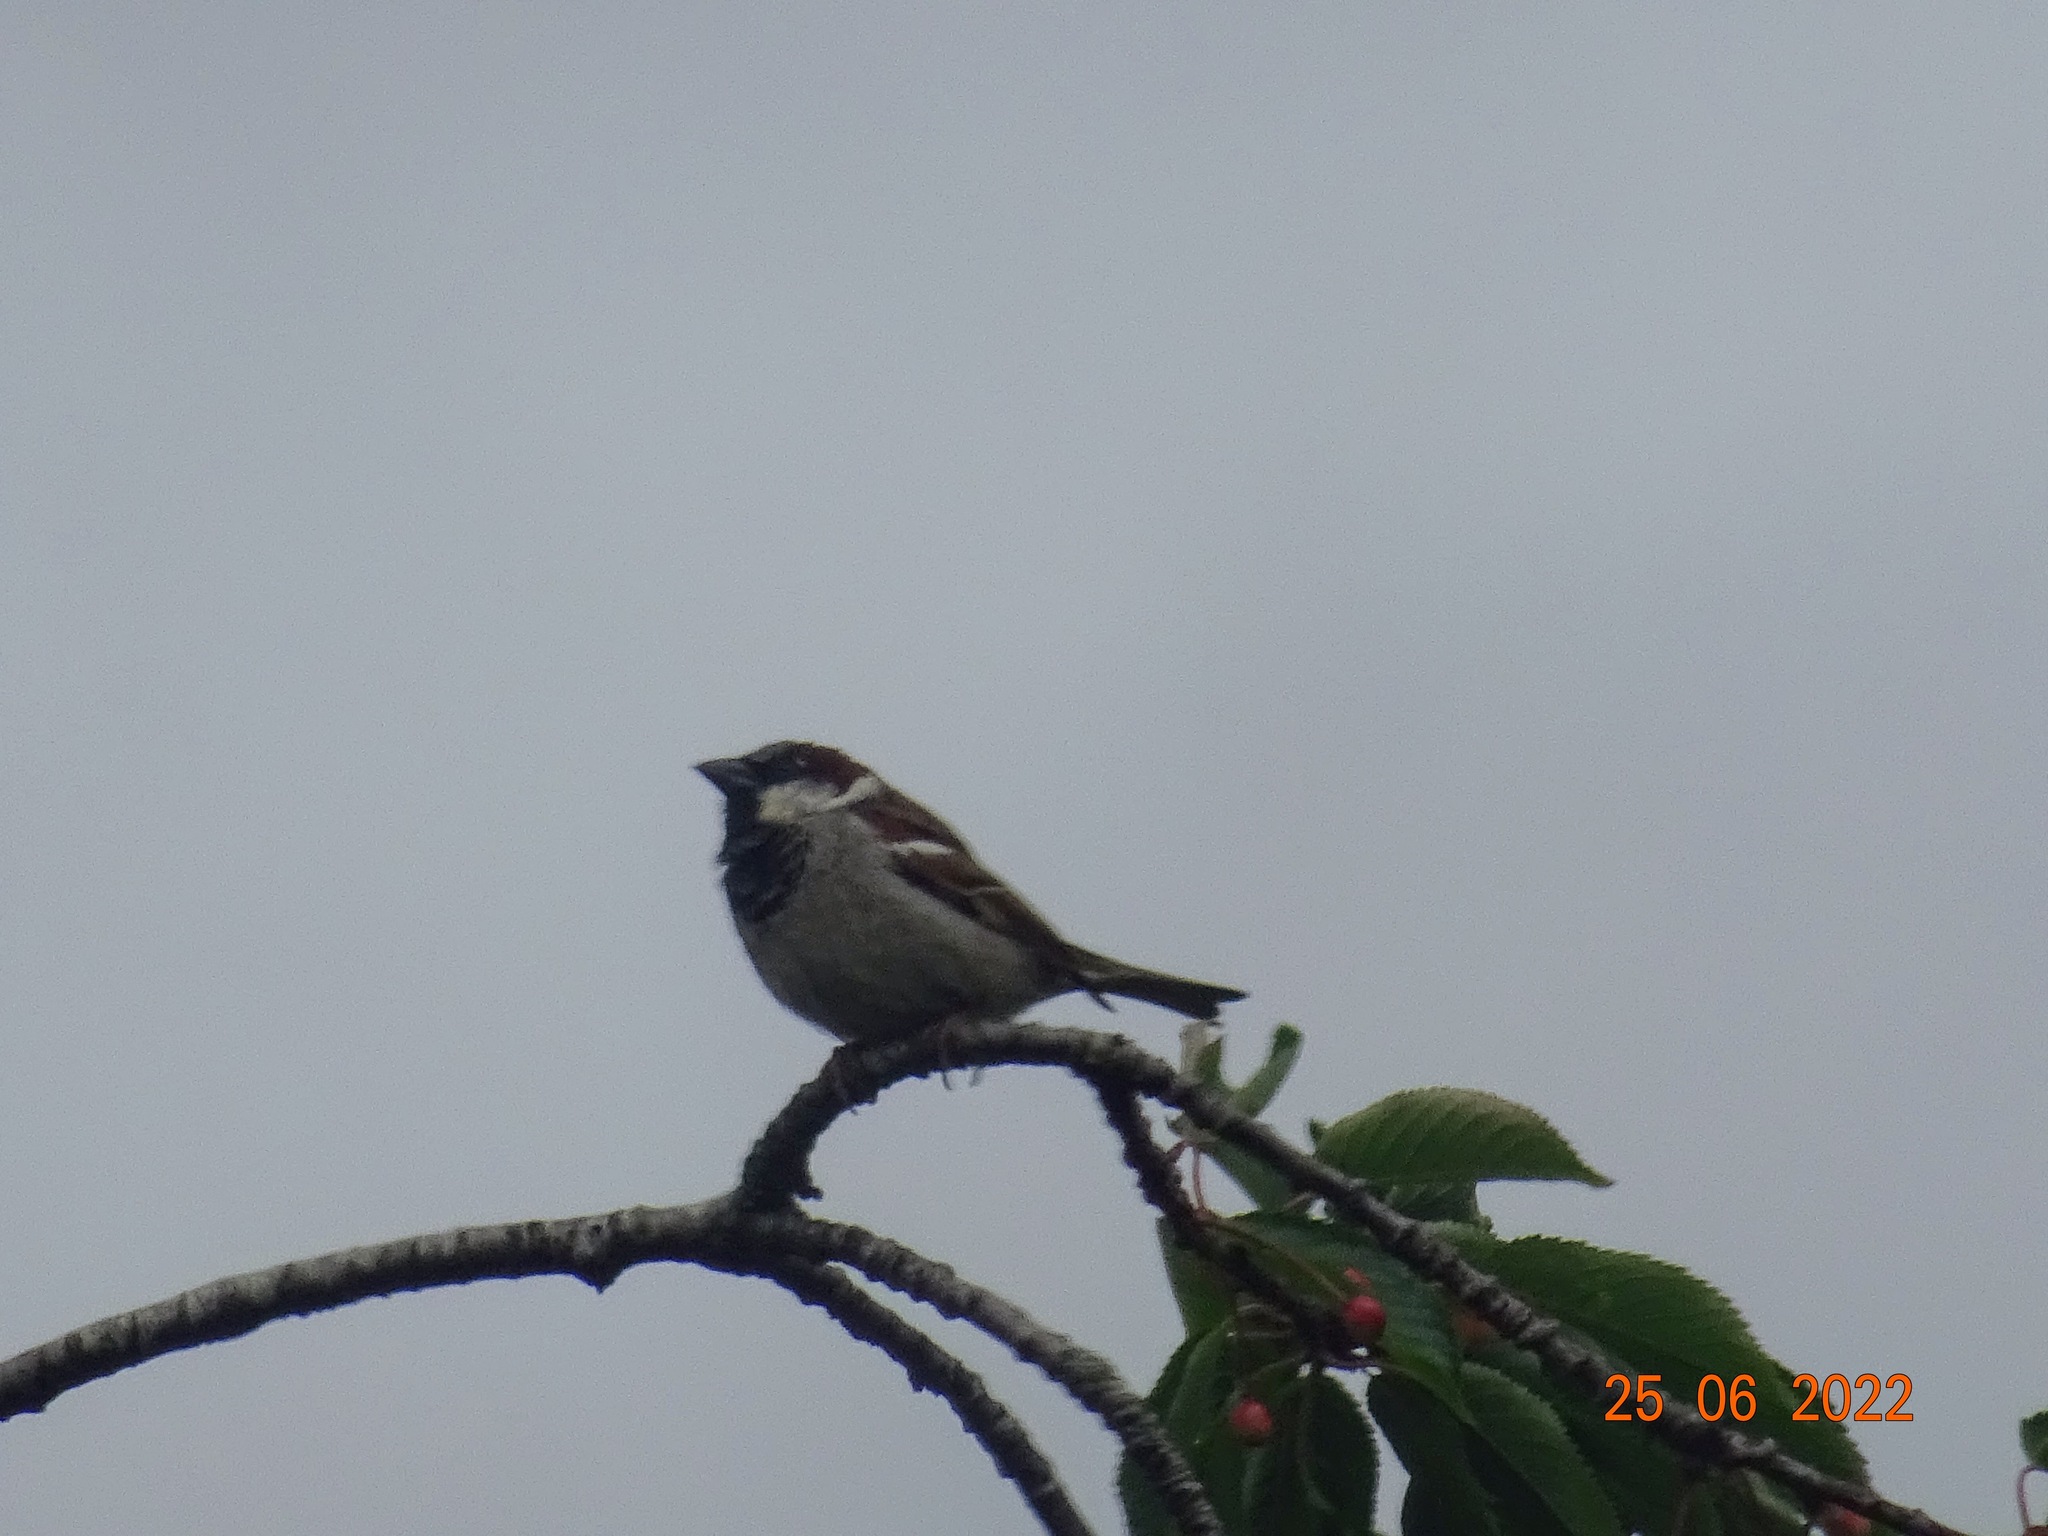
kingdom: Animalia
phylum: Chordata
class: Aves
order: Passeriformes
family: Passeridae
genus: Passer
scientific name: Passer domesticus
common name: House sparrow
